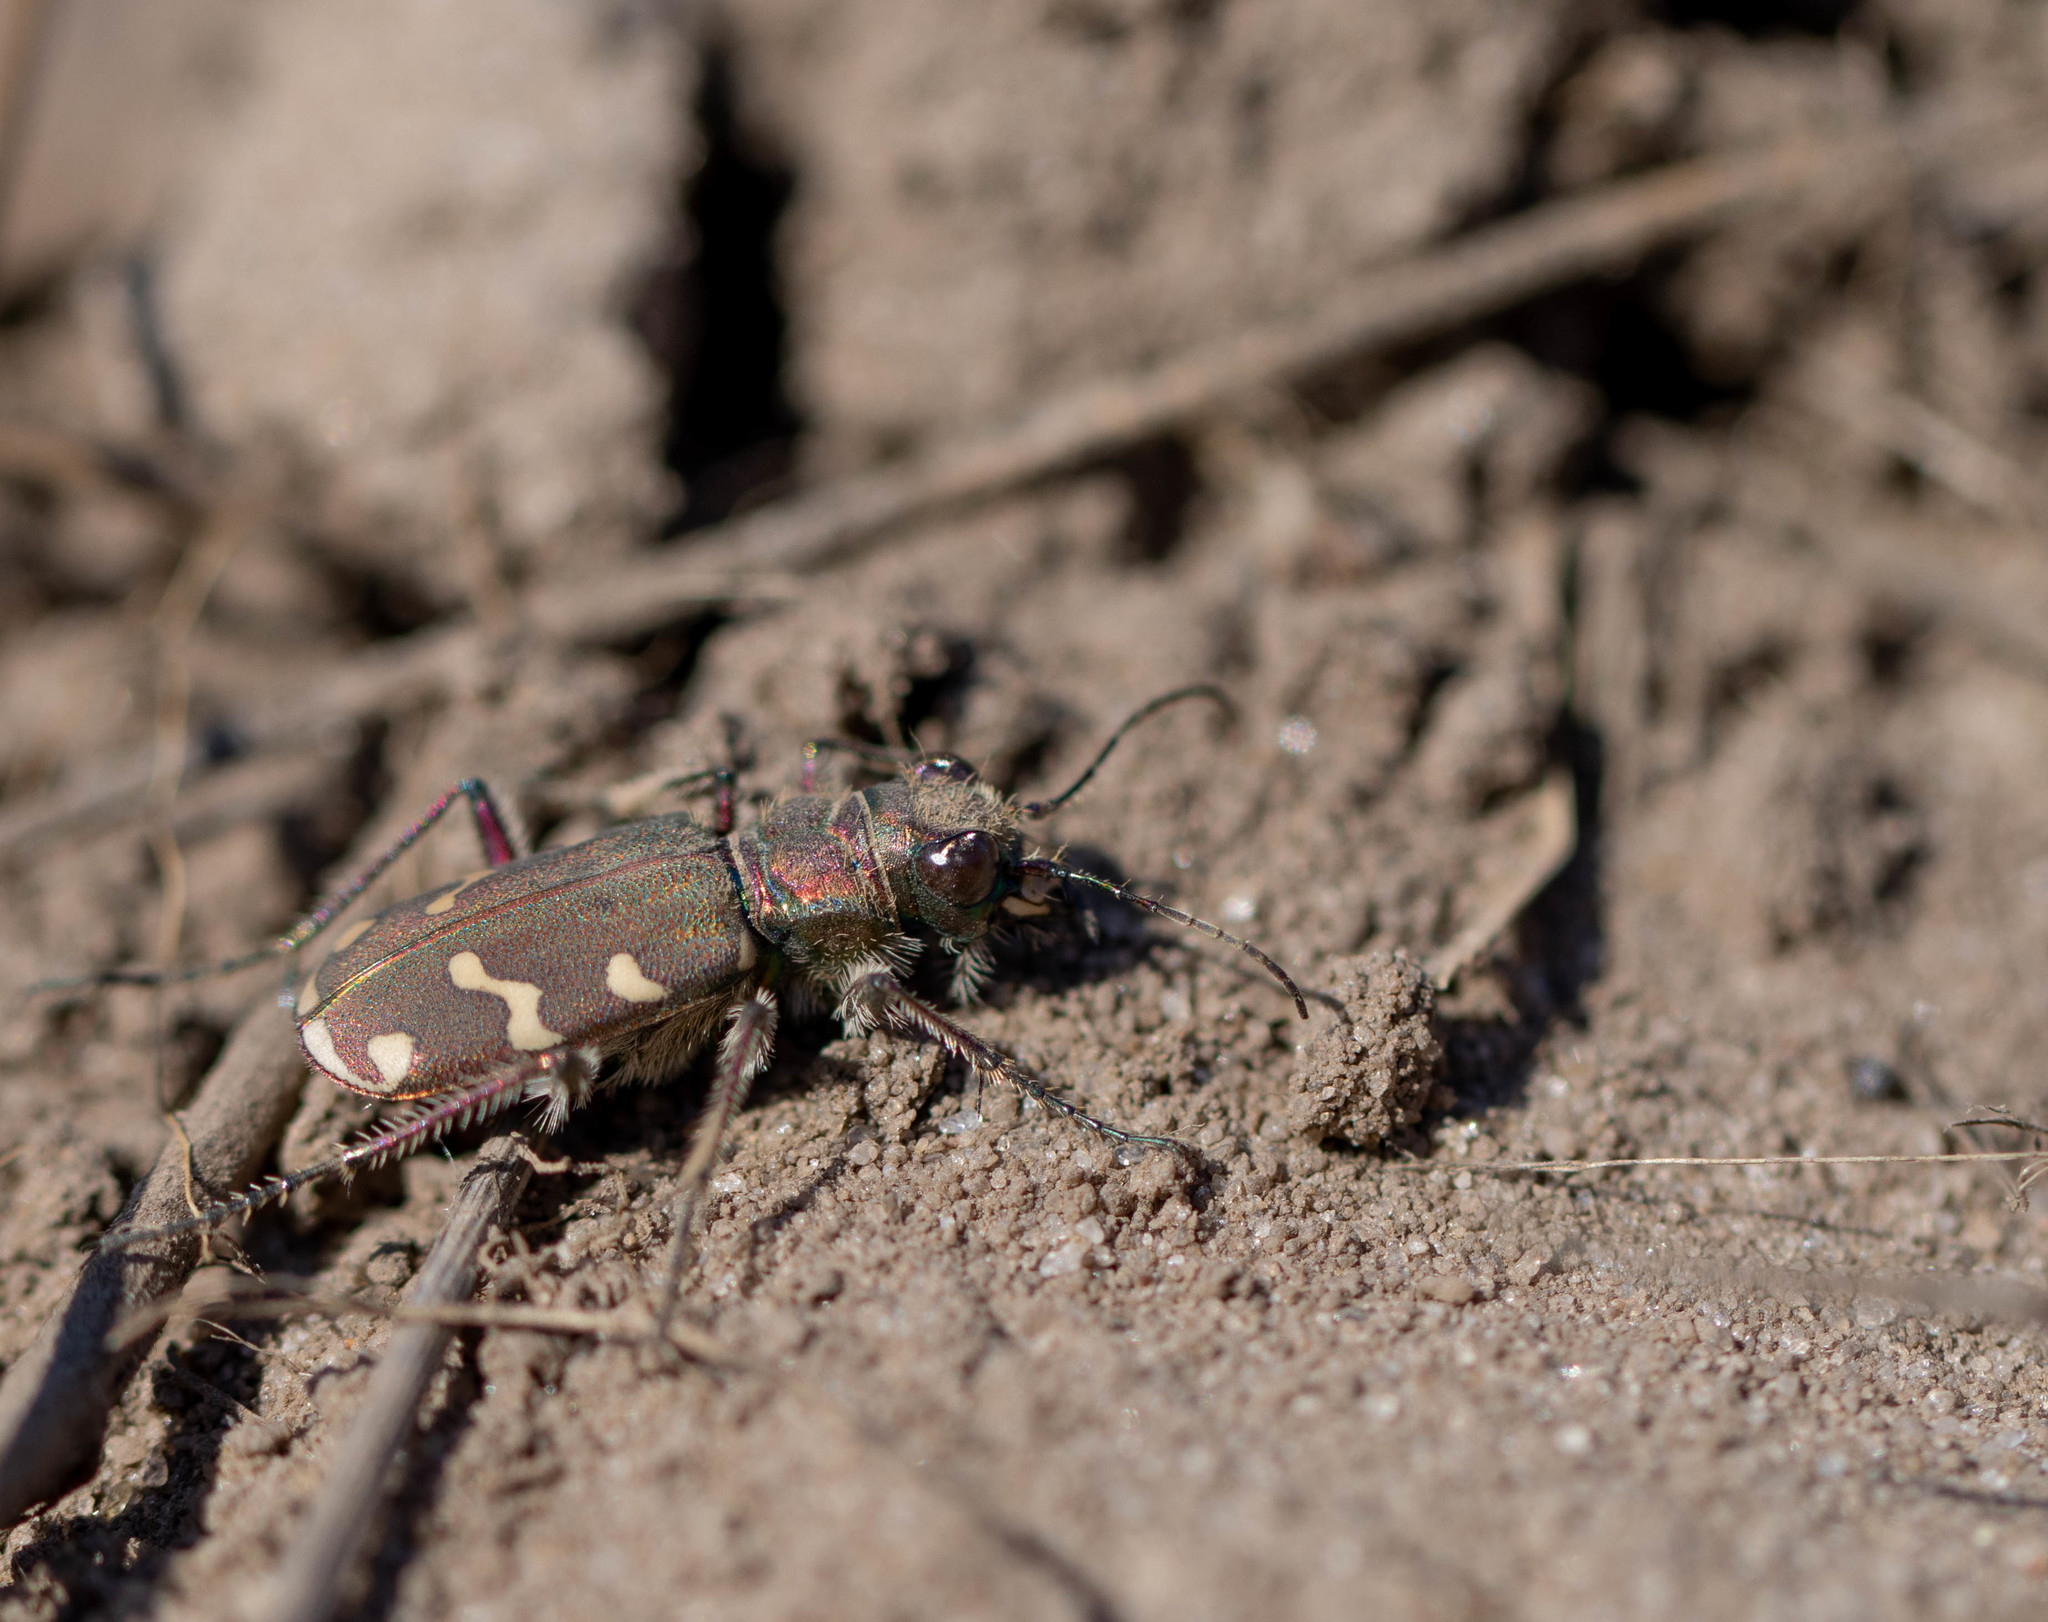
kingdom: Animalia
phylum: Arthropoda
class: Insecta
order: Coleoptera
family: Carabidae
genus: Cicindela
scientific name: Cicindela soluta
